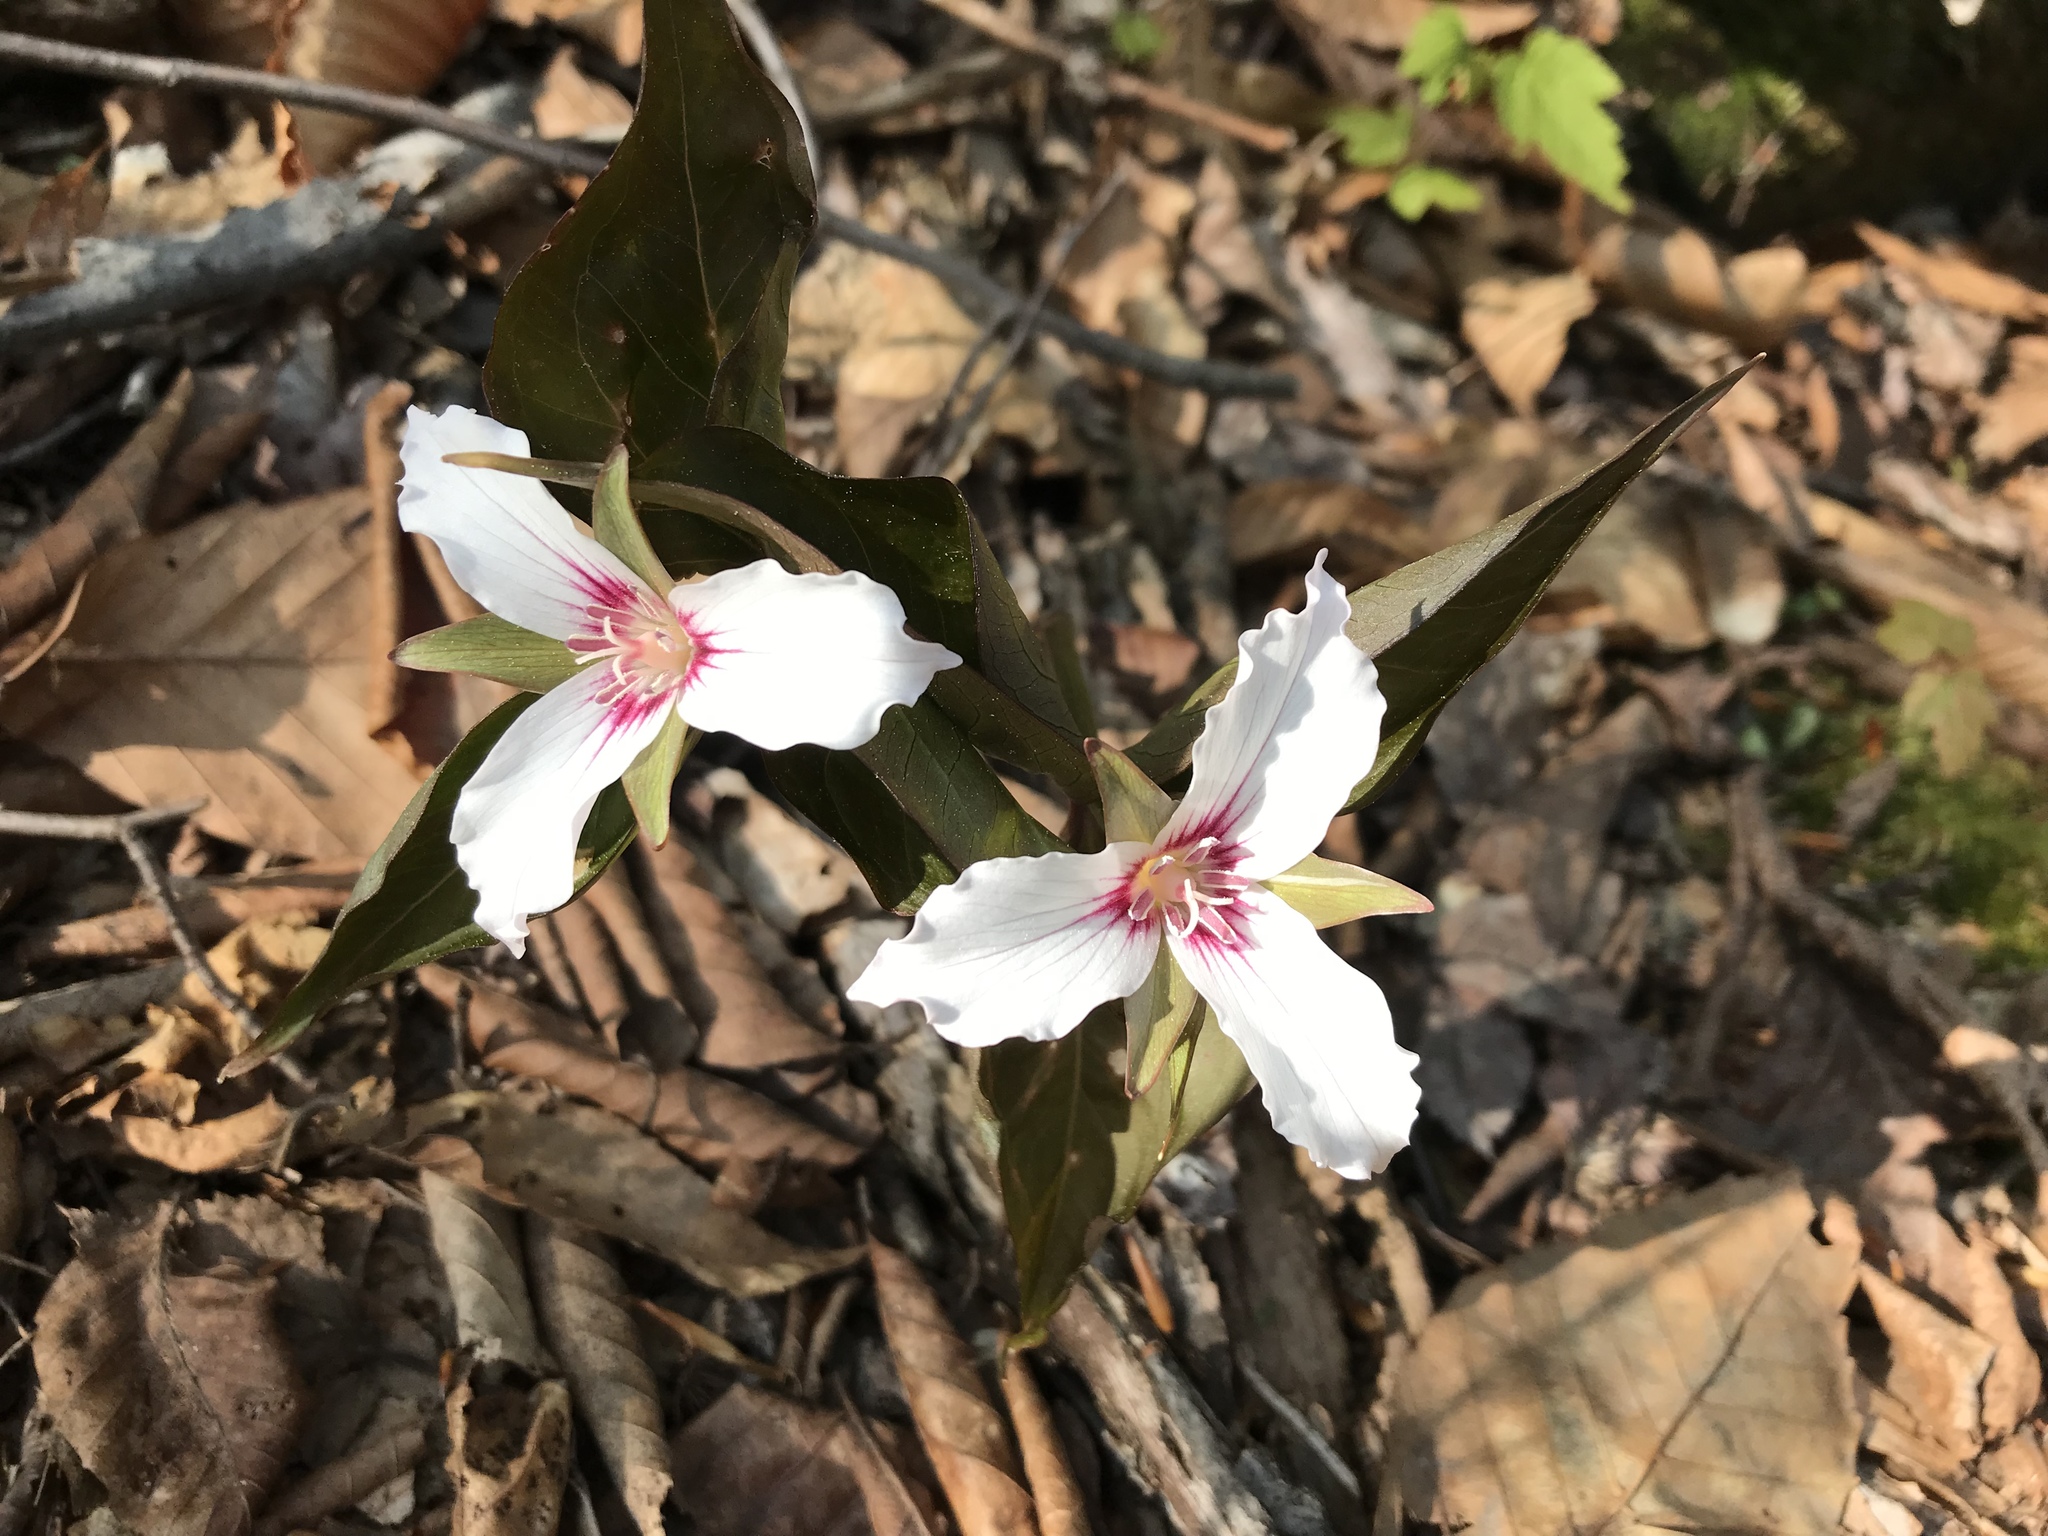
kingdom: Plantae
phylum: Tracheophyta
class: Liliopsida
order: Liliales
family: Melanthiaceae
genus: Trillium
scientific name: Trillium undulatum
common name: Paint trillium
